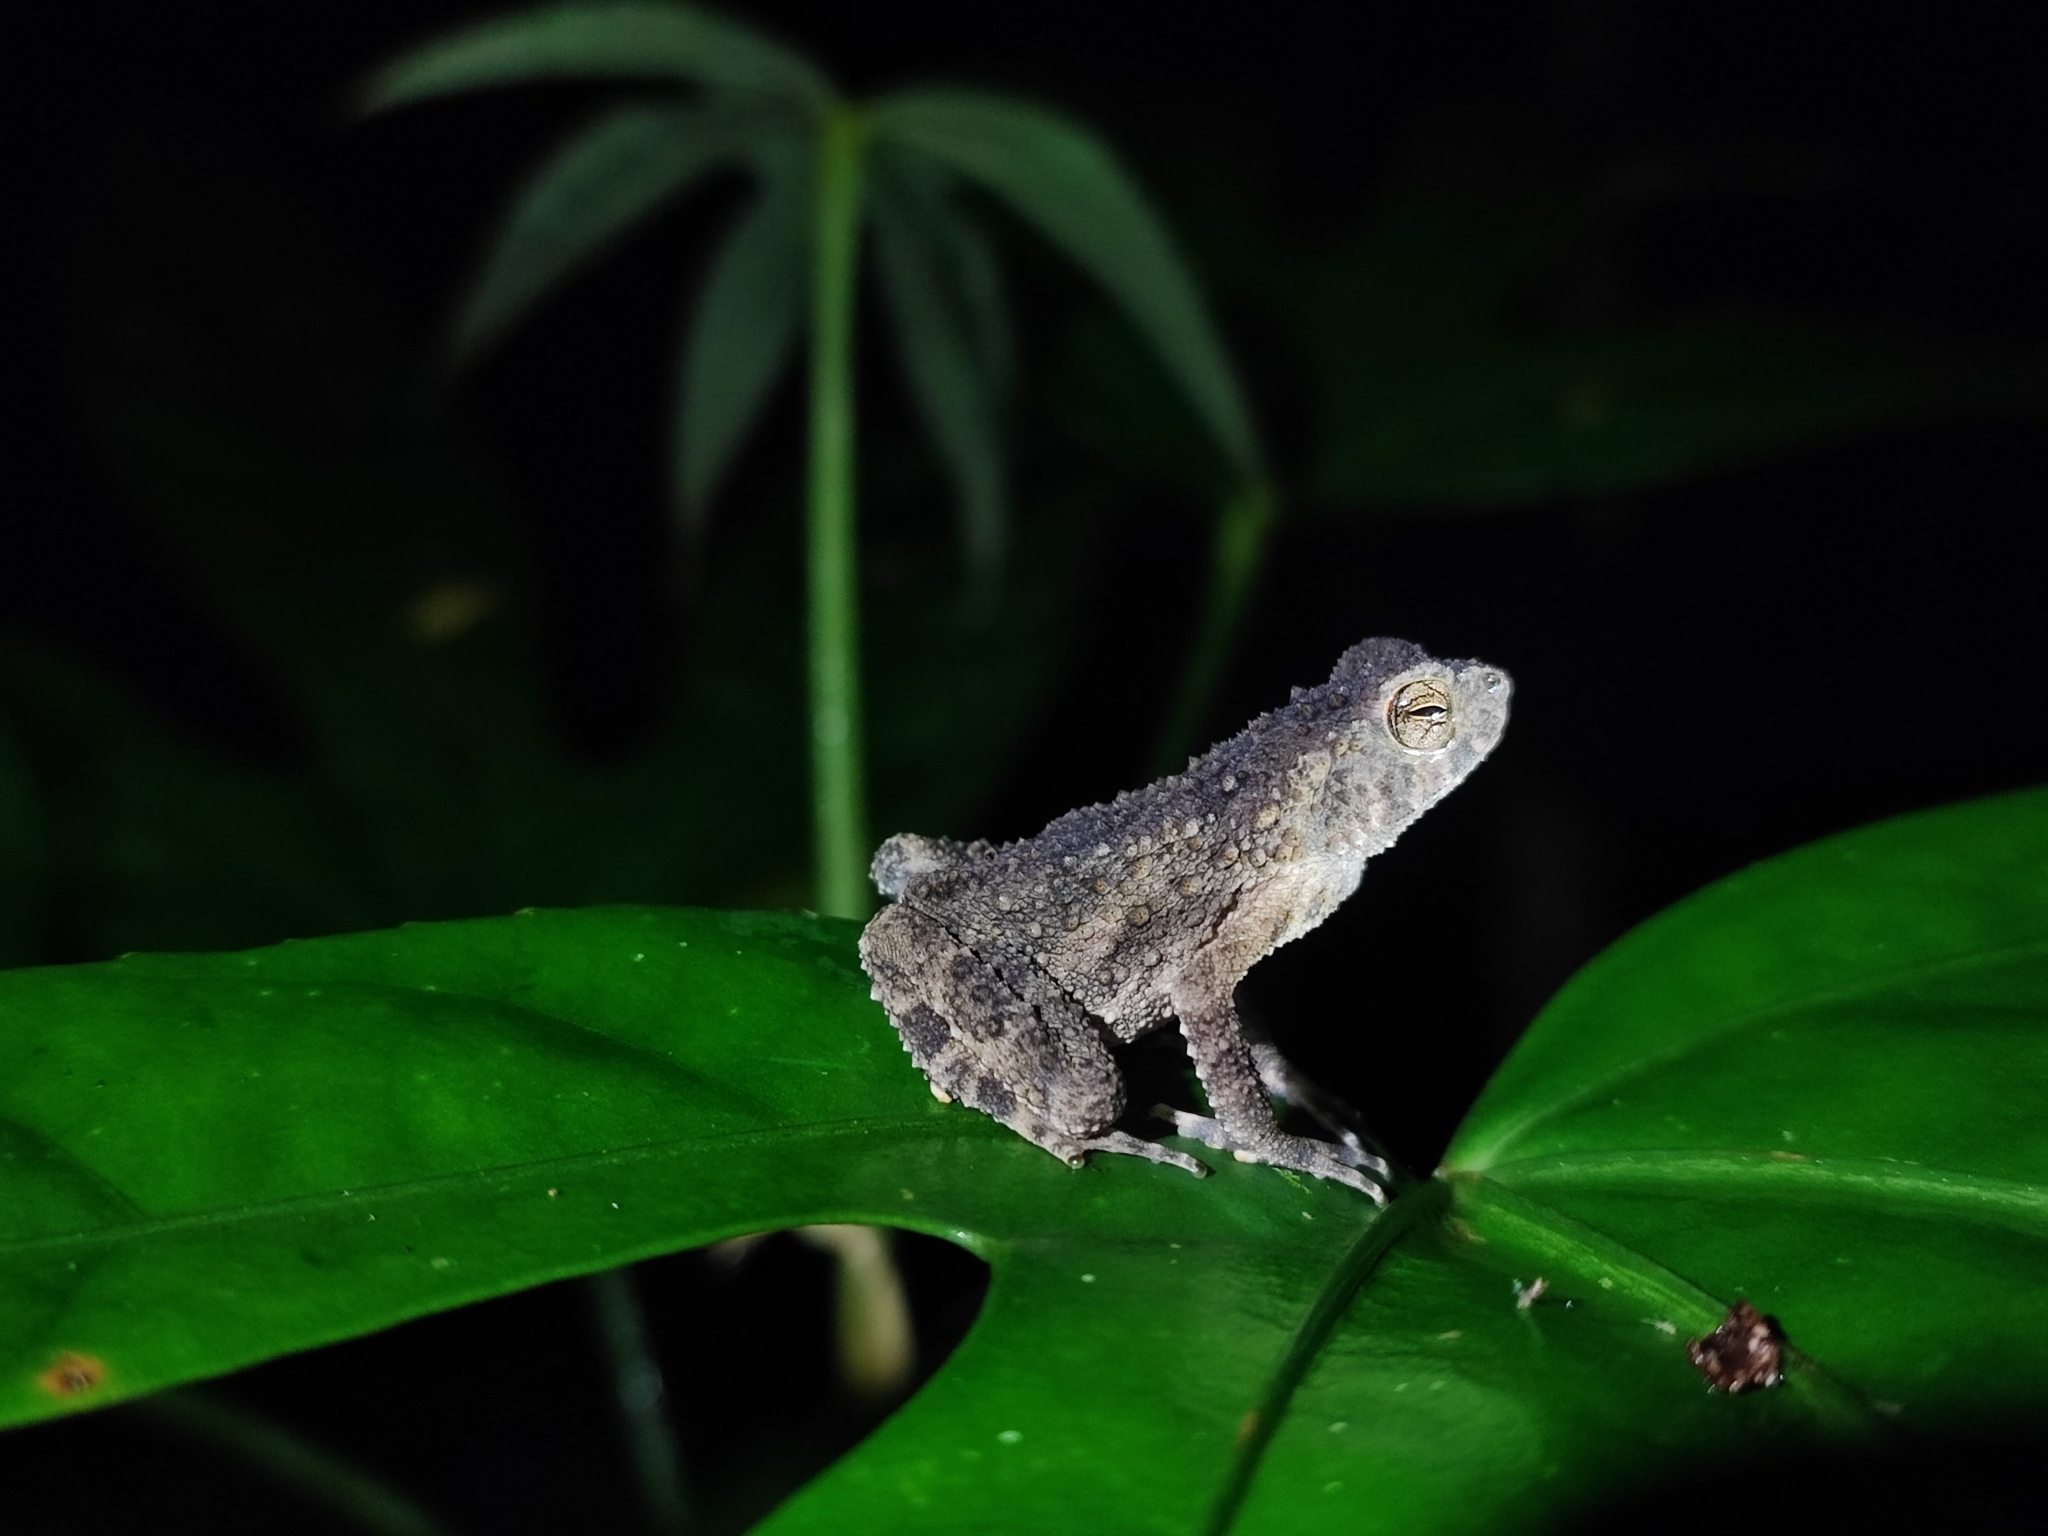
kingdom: Animalia
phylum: Chordata
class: Amphibia
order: Anura
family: Bufonidae
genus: Phrynoidis
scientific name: Phrynoidis asper
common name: Asian giant toad
